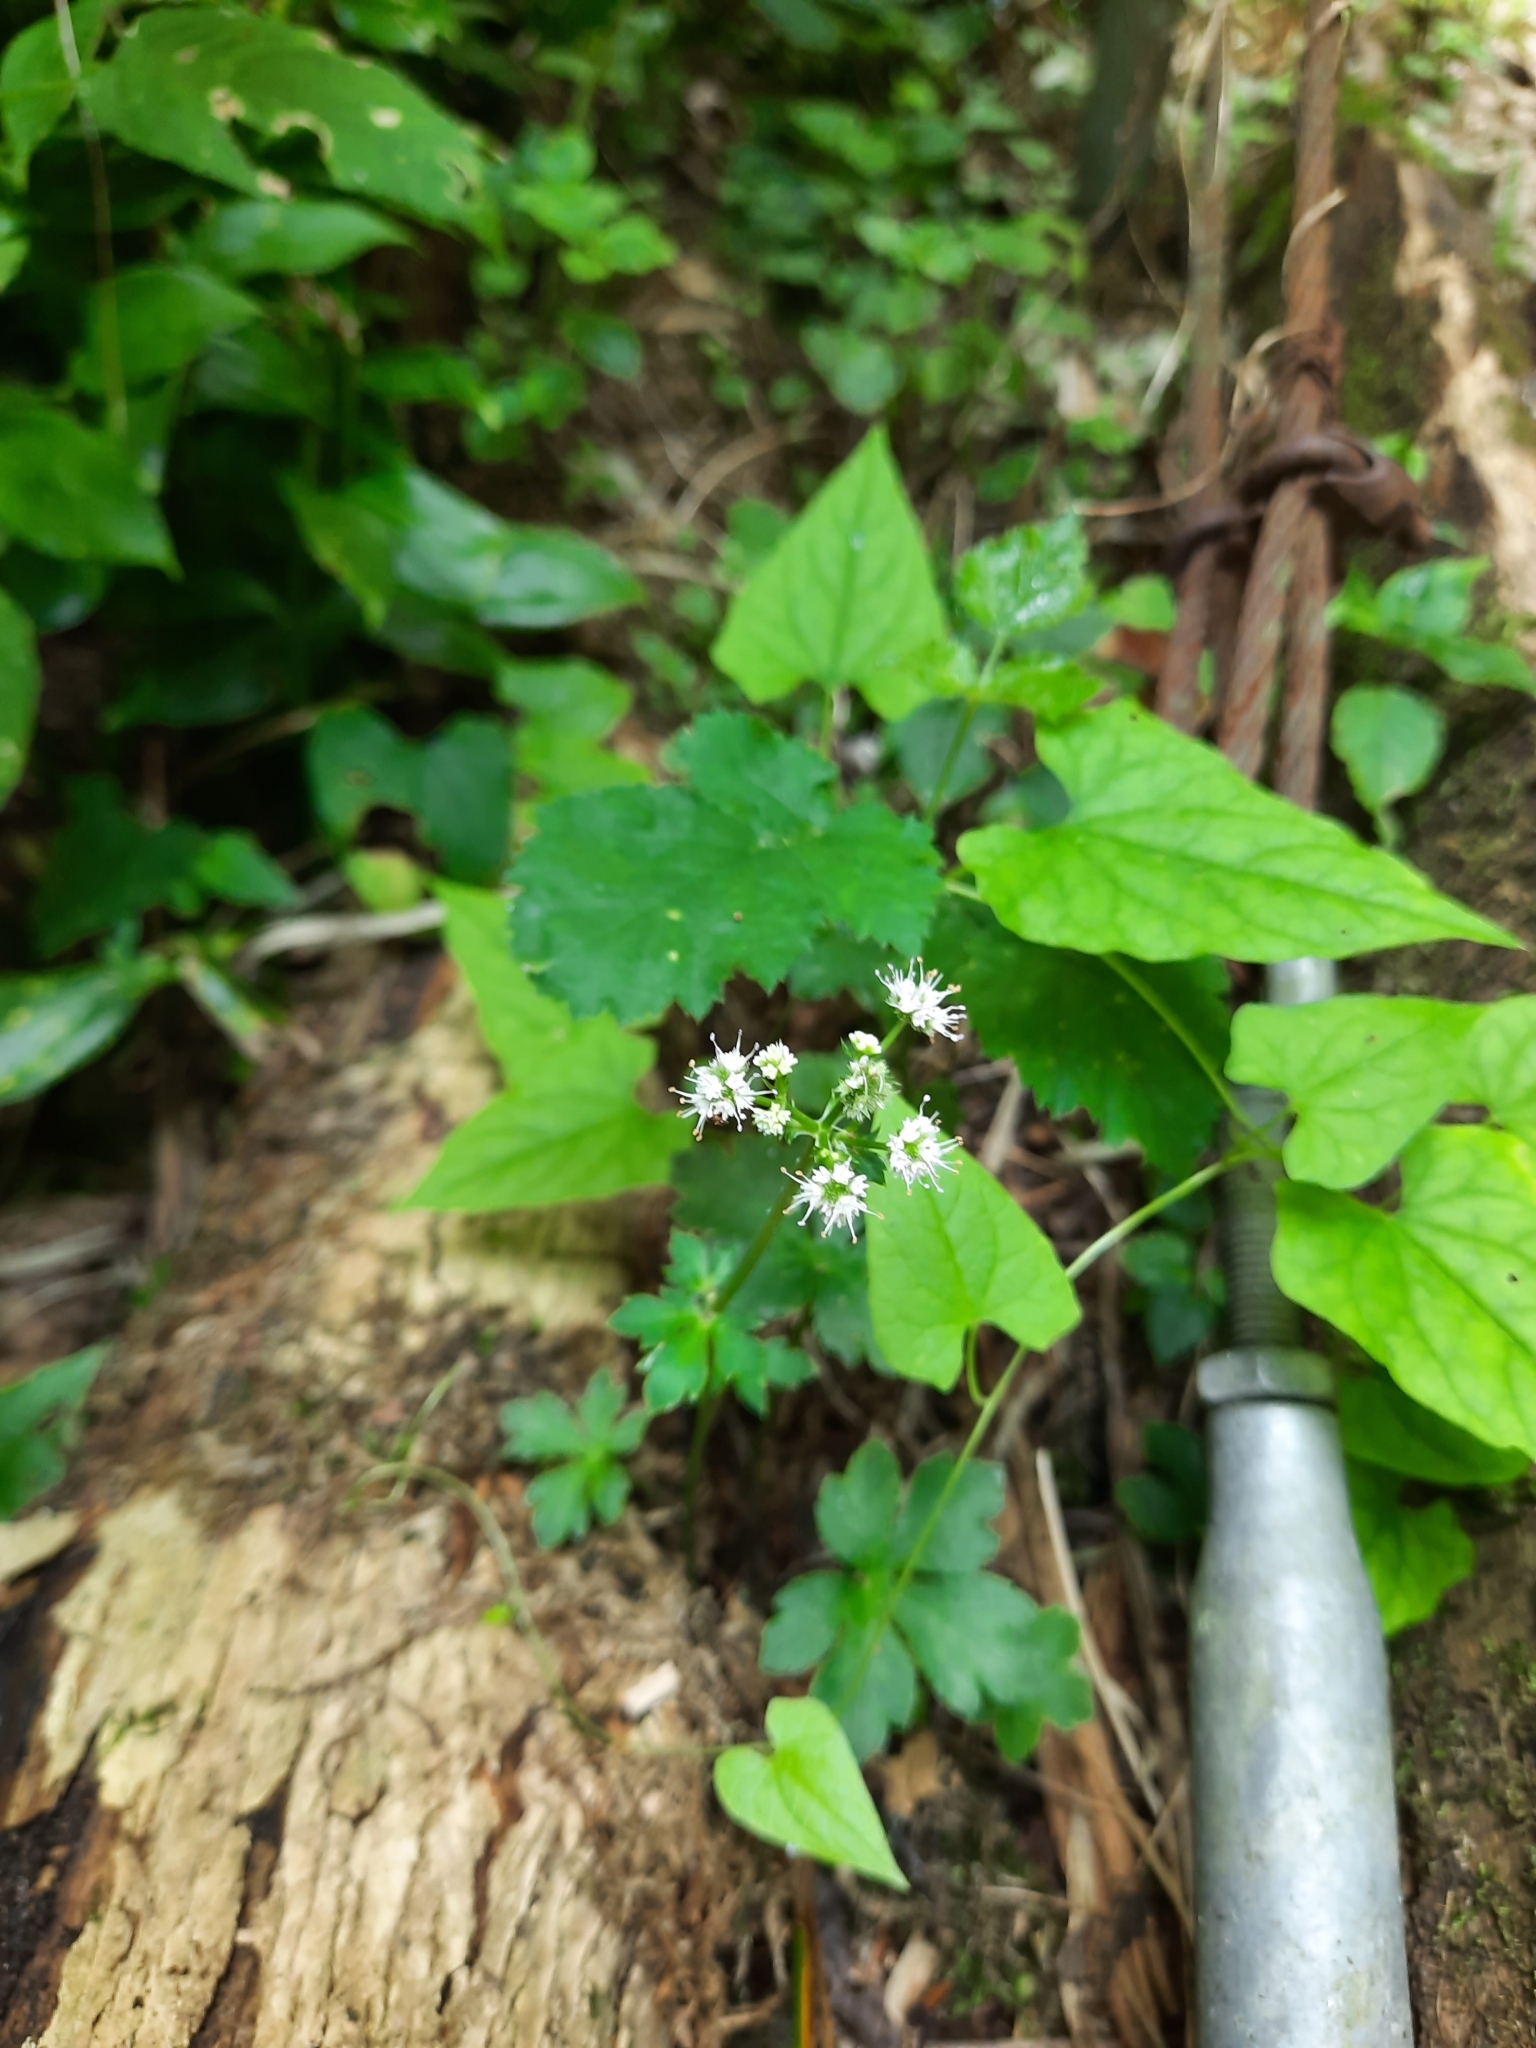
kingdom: Plantae
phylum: Tracheophyta
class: Magnoliopsida
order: Apiales
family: Apiaceae
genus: Sanicula
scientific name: Sanicula europaea
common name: Sanicle
